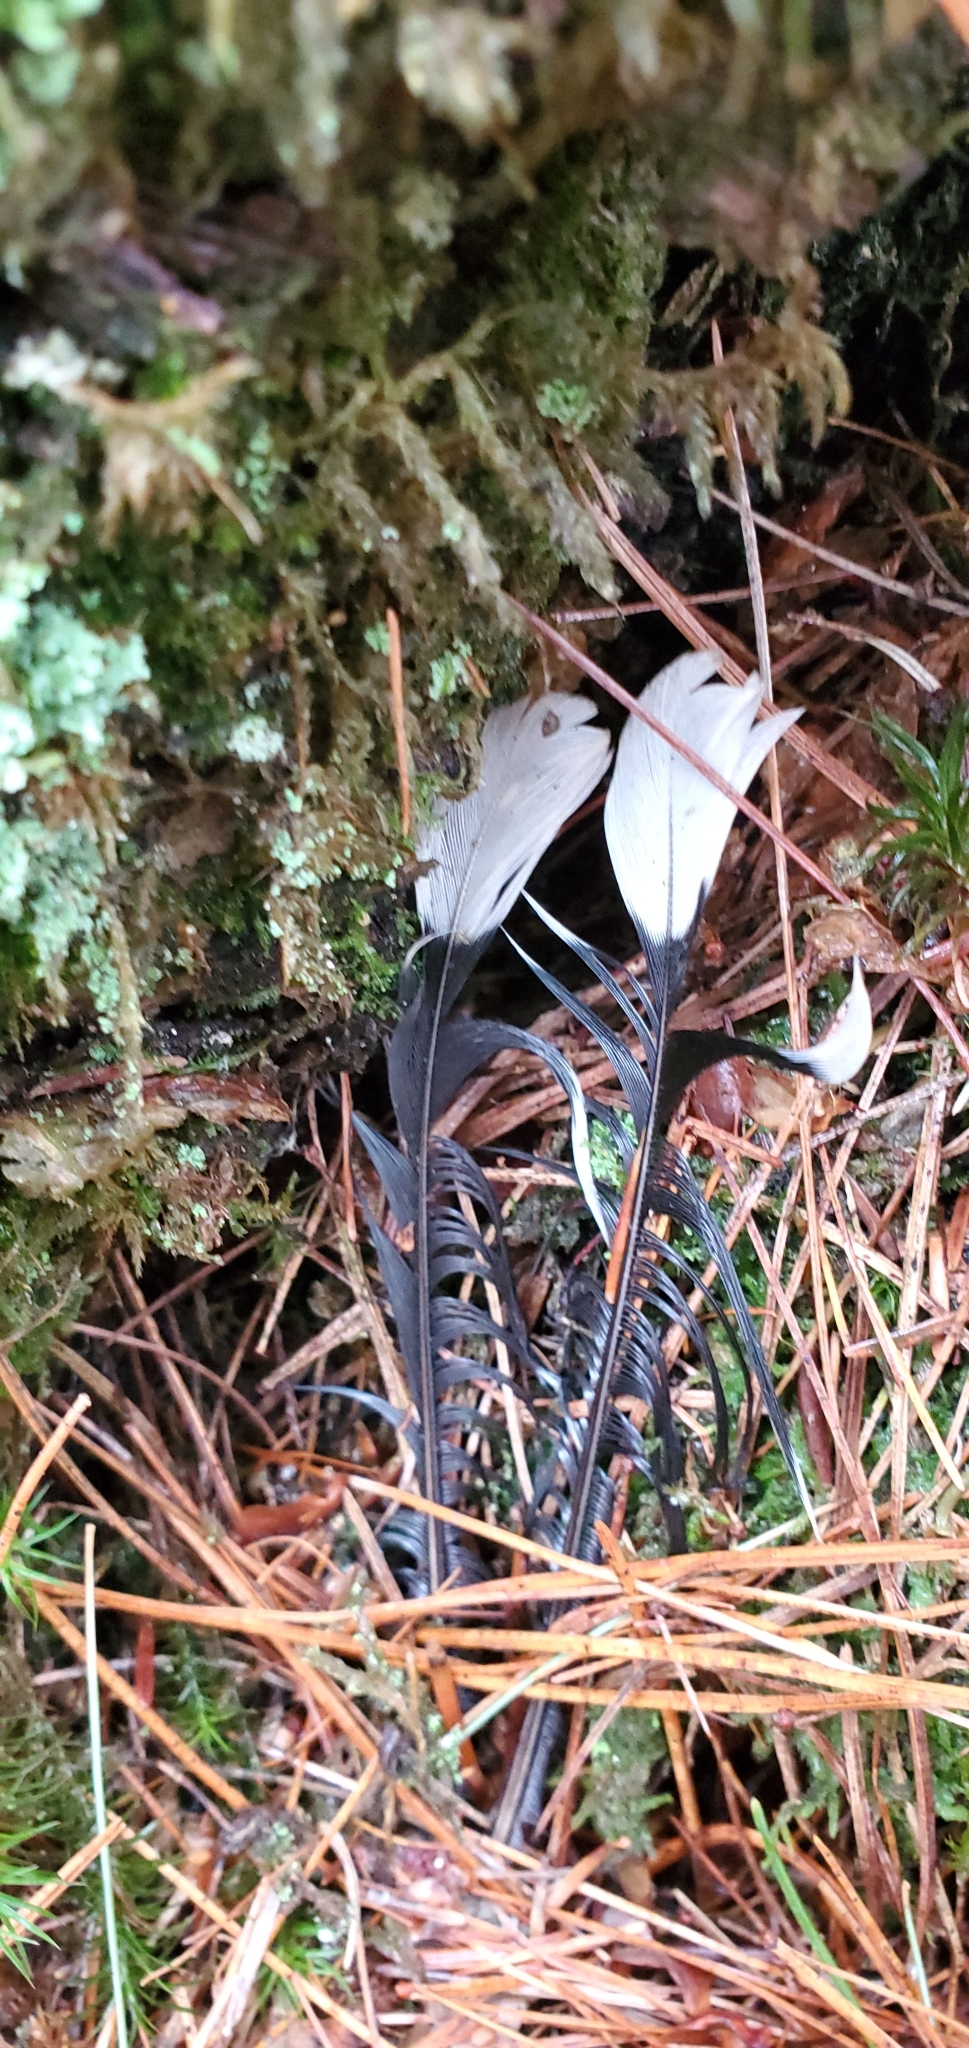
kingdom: Animalia
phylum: Chordata
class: Aves
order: Passeriformes
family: Corvidae
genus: Cyanocitta
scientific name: Cyanocitta cristata
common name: Blue jay
